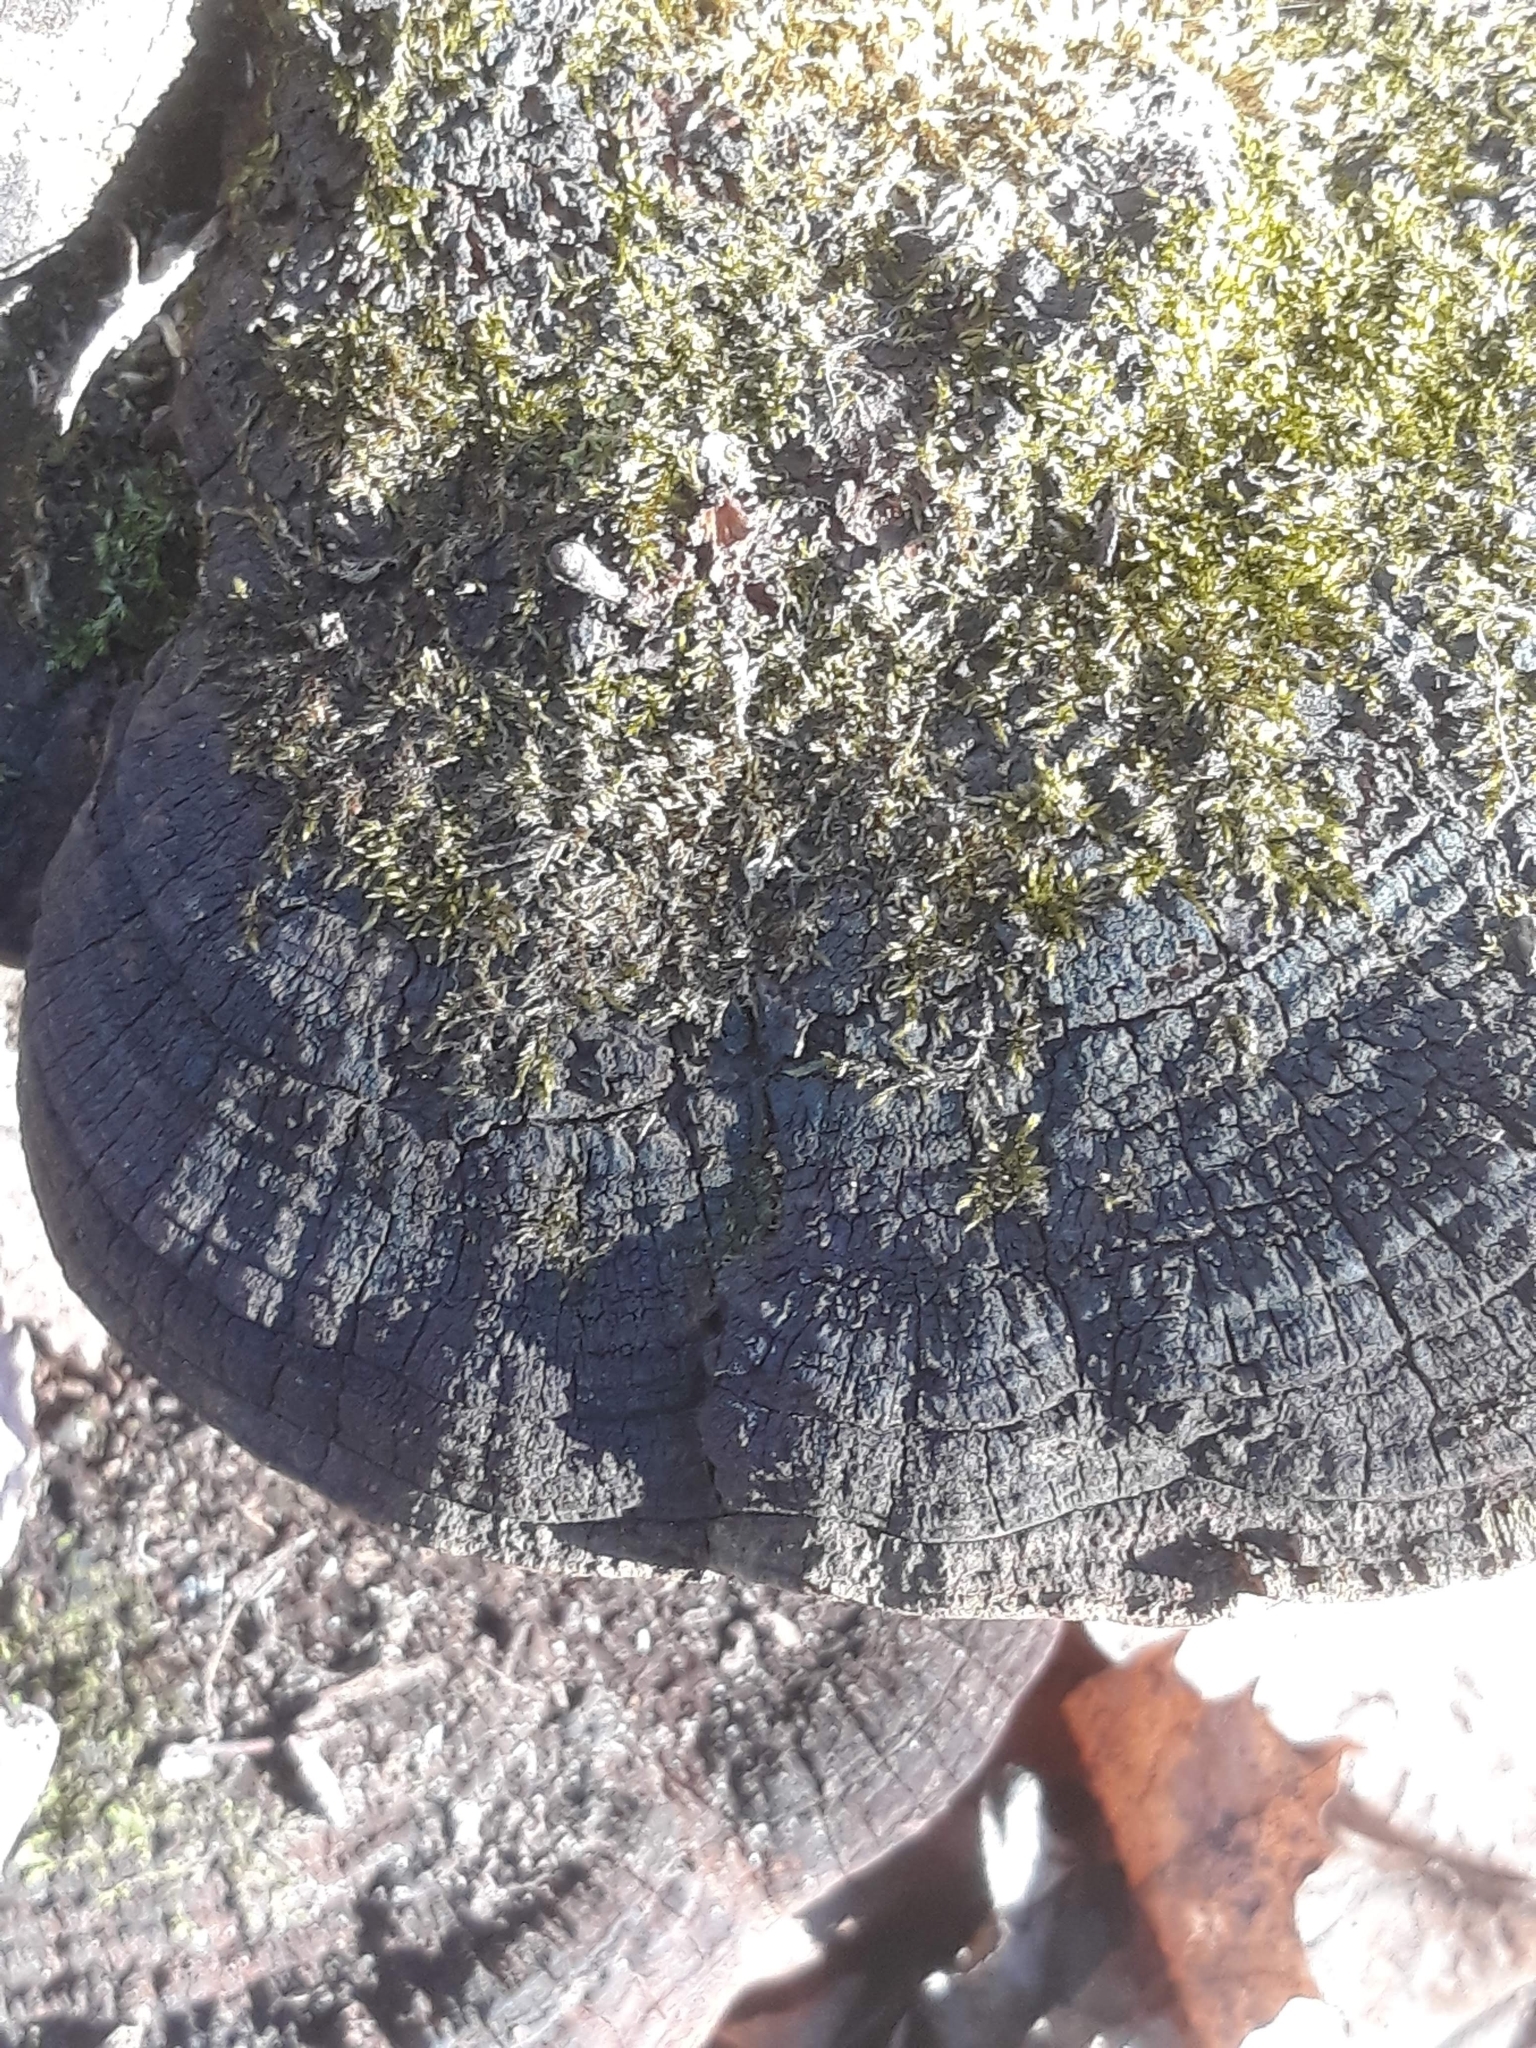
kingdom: Fungi
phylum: Basidiomycota
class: Agaricomycetes
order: Hymenochaetales
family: Hymenochaetaceae
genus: Phellinus
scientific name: Phellinus robiniae
